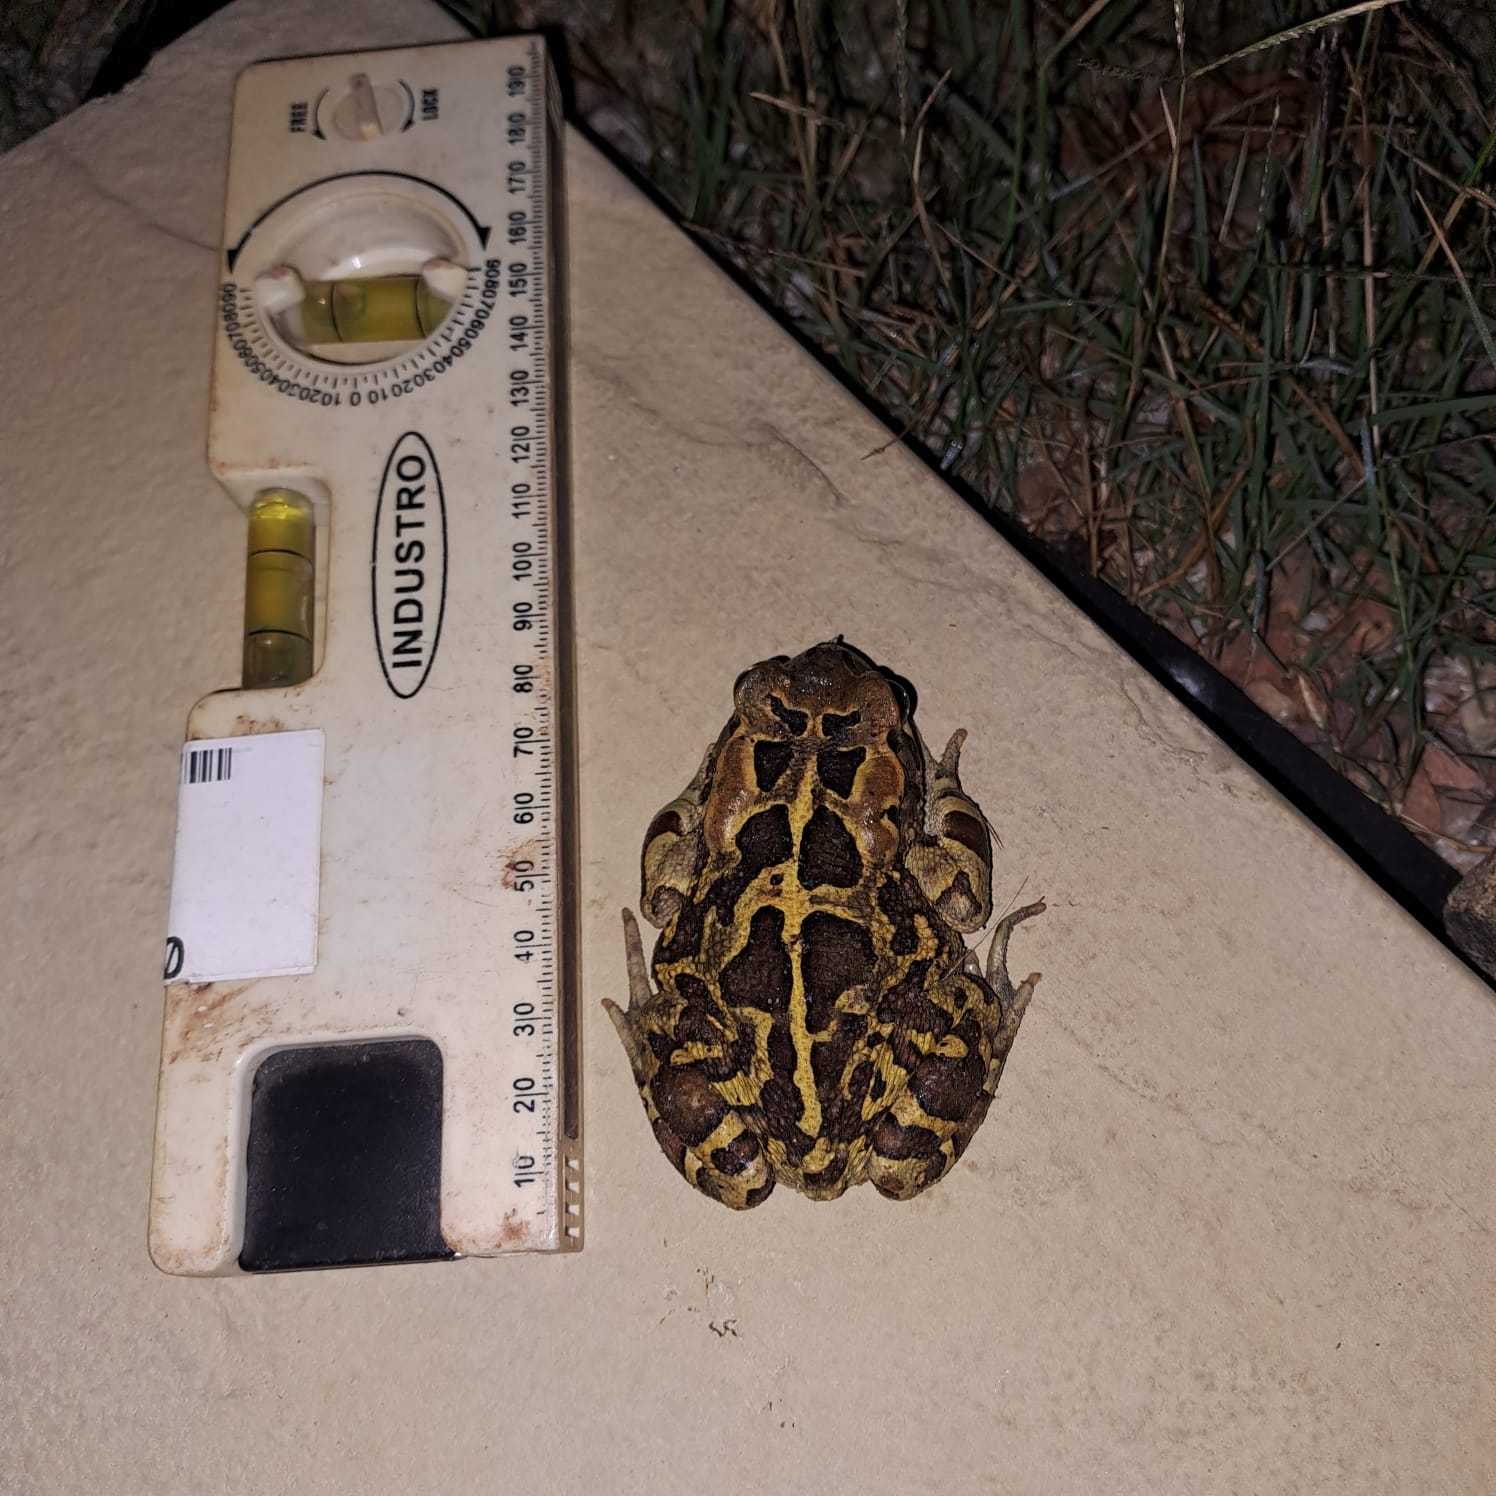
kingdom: Animalia
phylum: Chordata
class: Amphibia
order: Anura
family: Bufonidae
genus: Sclerophrys
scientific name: Sclerophrys pantherina
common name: Panther toad
